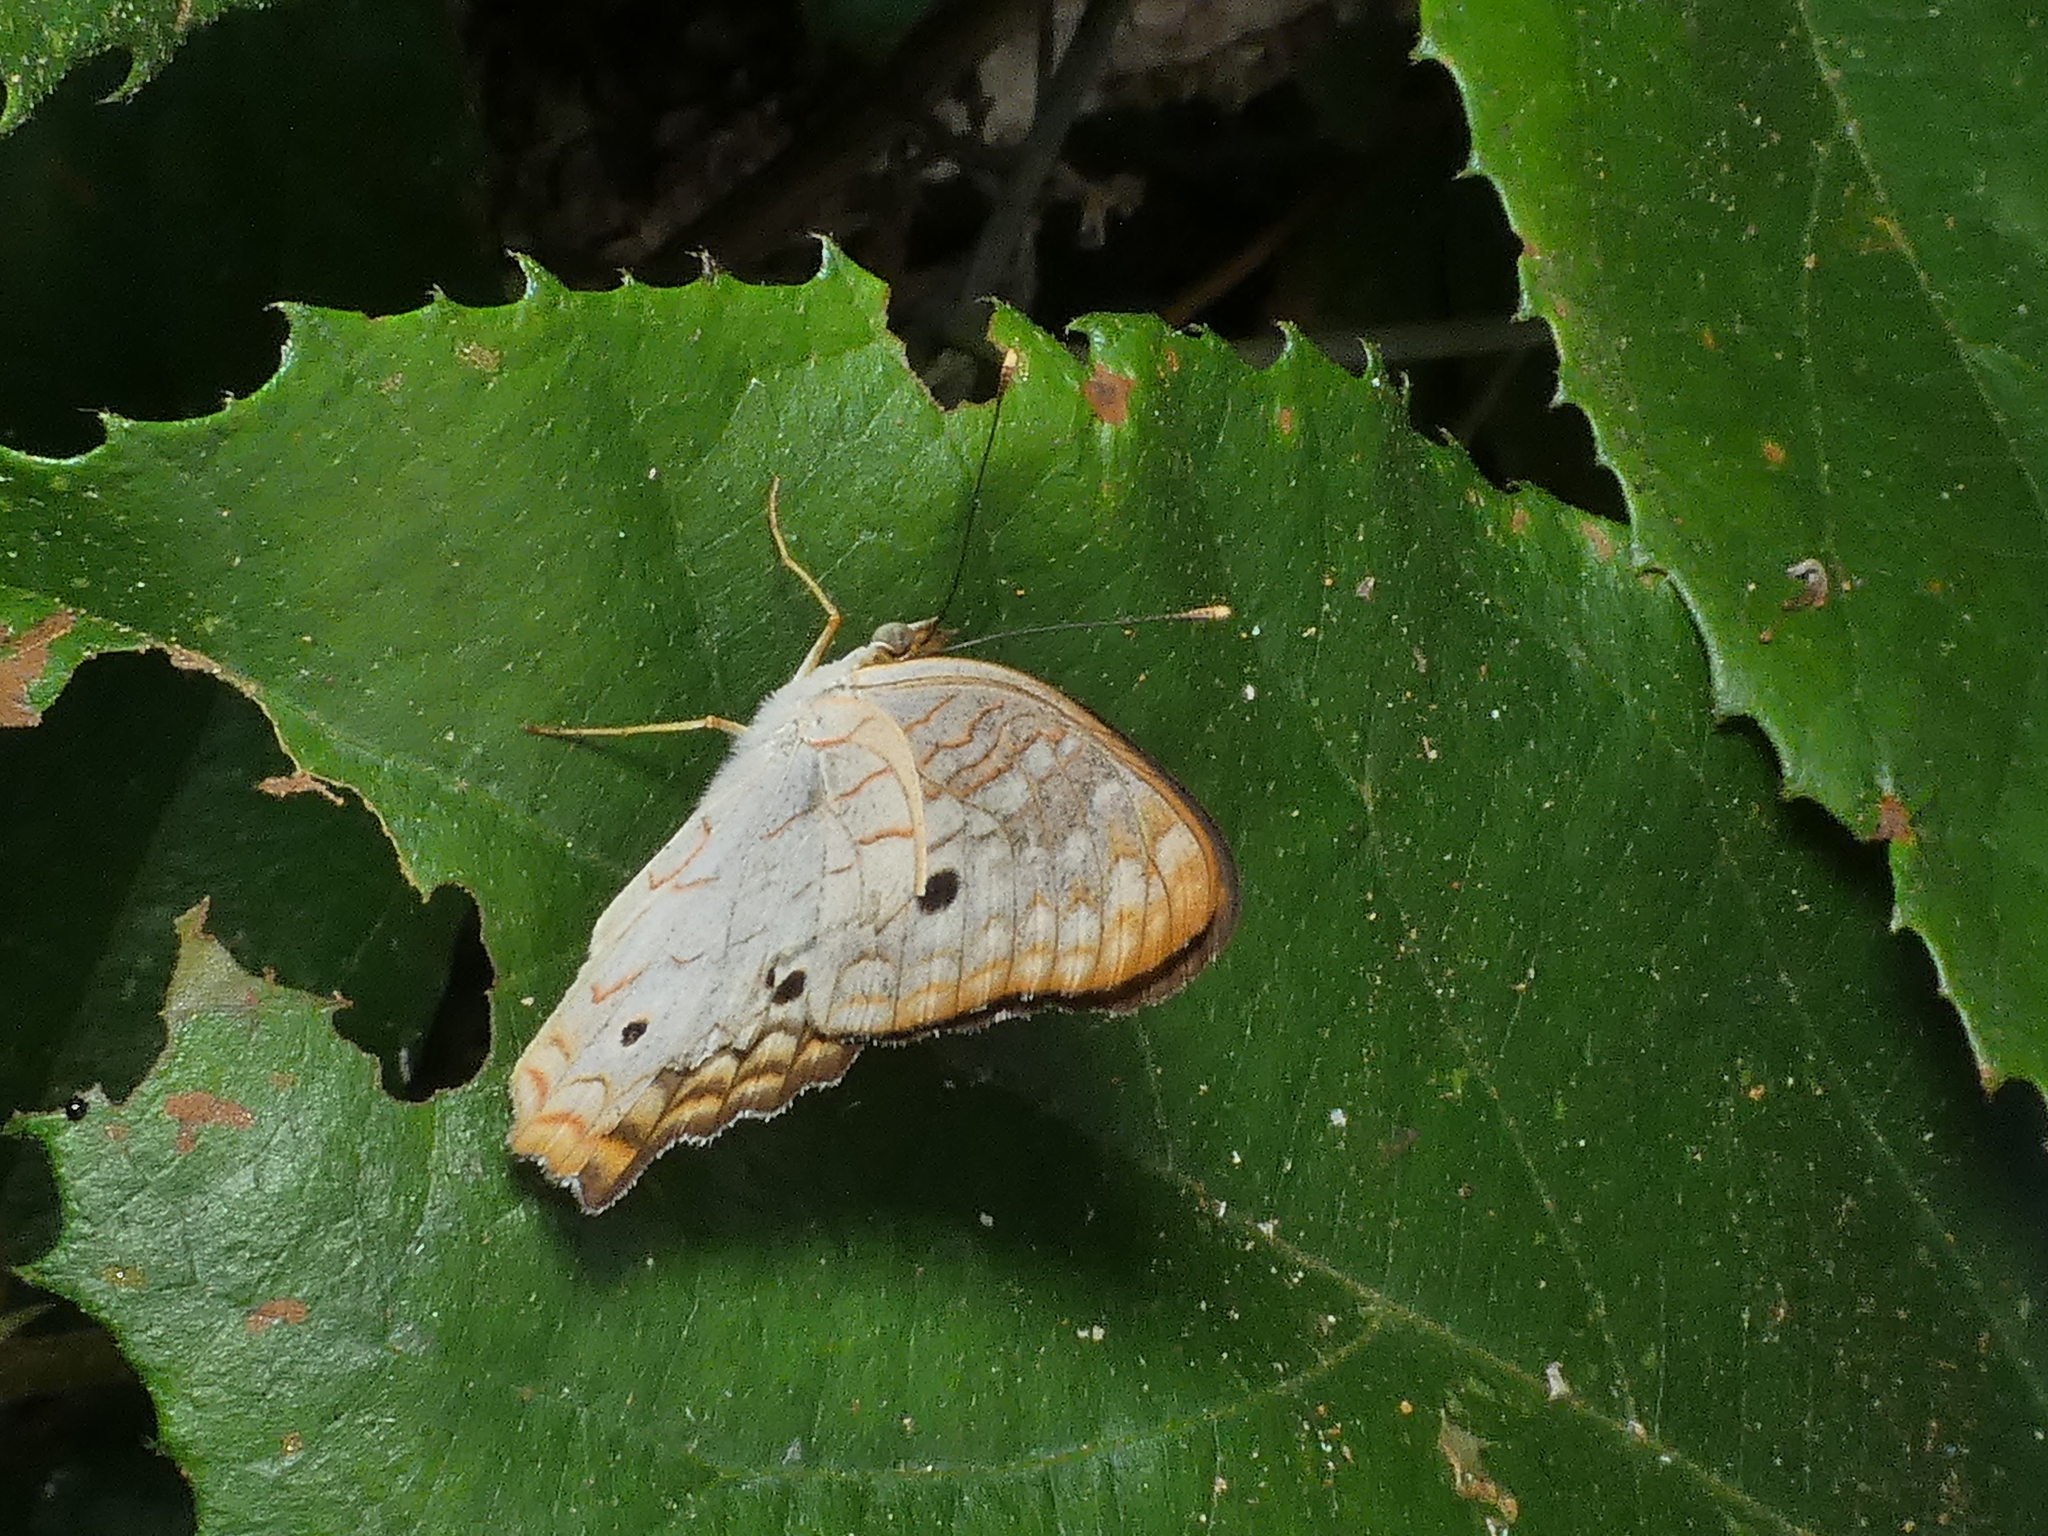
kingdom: Animalia
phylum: Arthropoda
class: Insecta
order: Lepidoptera
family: Nymphalidae
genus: Anartia
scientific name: Anartia jatrophae
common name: White peacock
